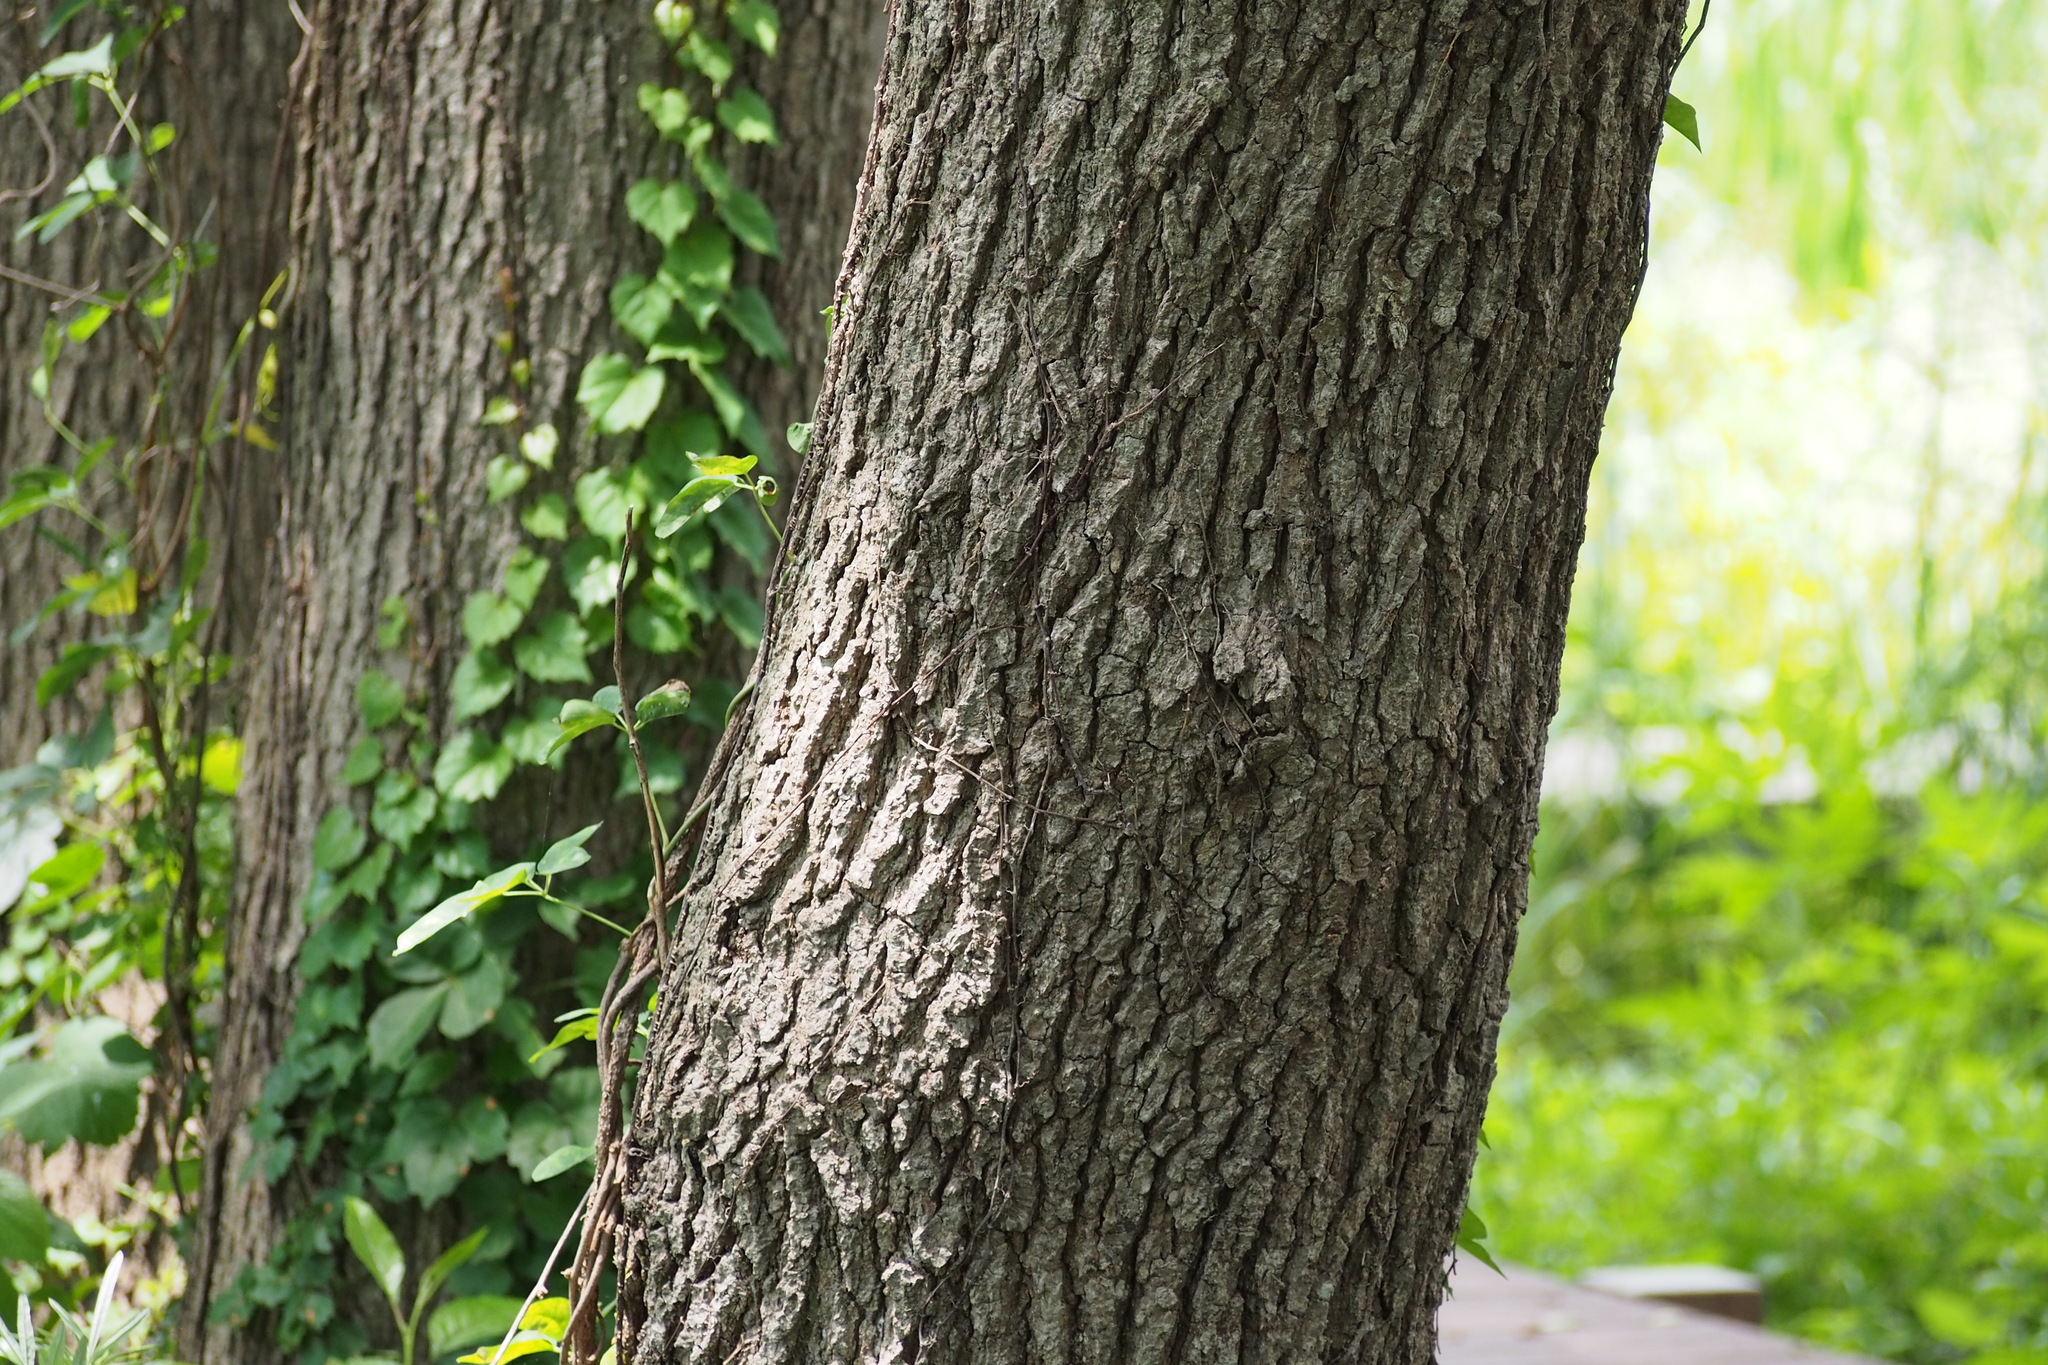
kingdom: Plantae
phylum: Tracheophyta
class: Magnoliopsida
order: Fagales
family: Betulaceae
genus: Alnus
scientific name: Alnus japonica
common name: Japanese alder
